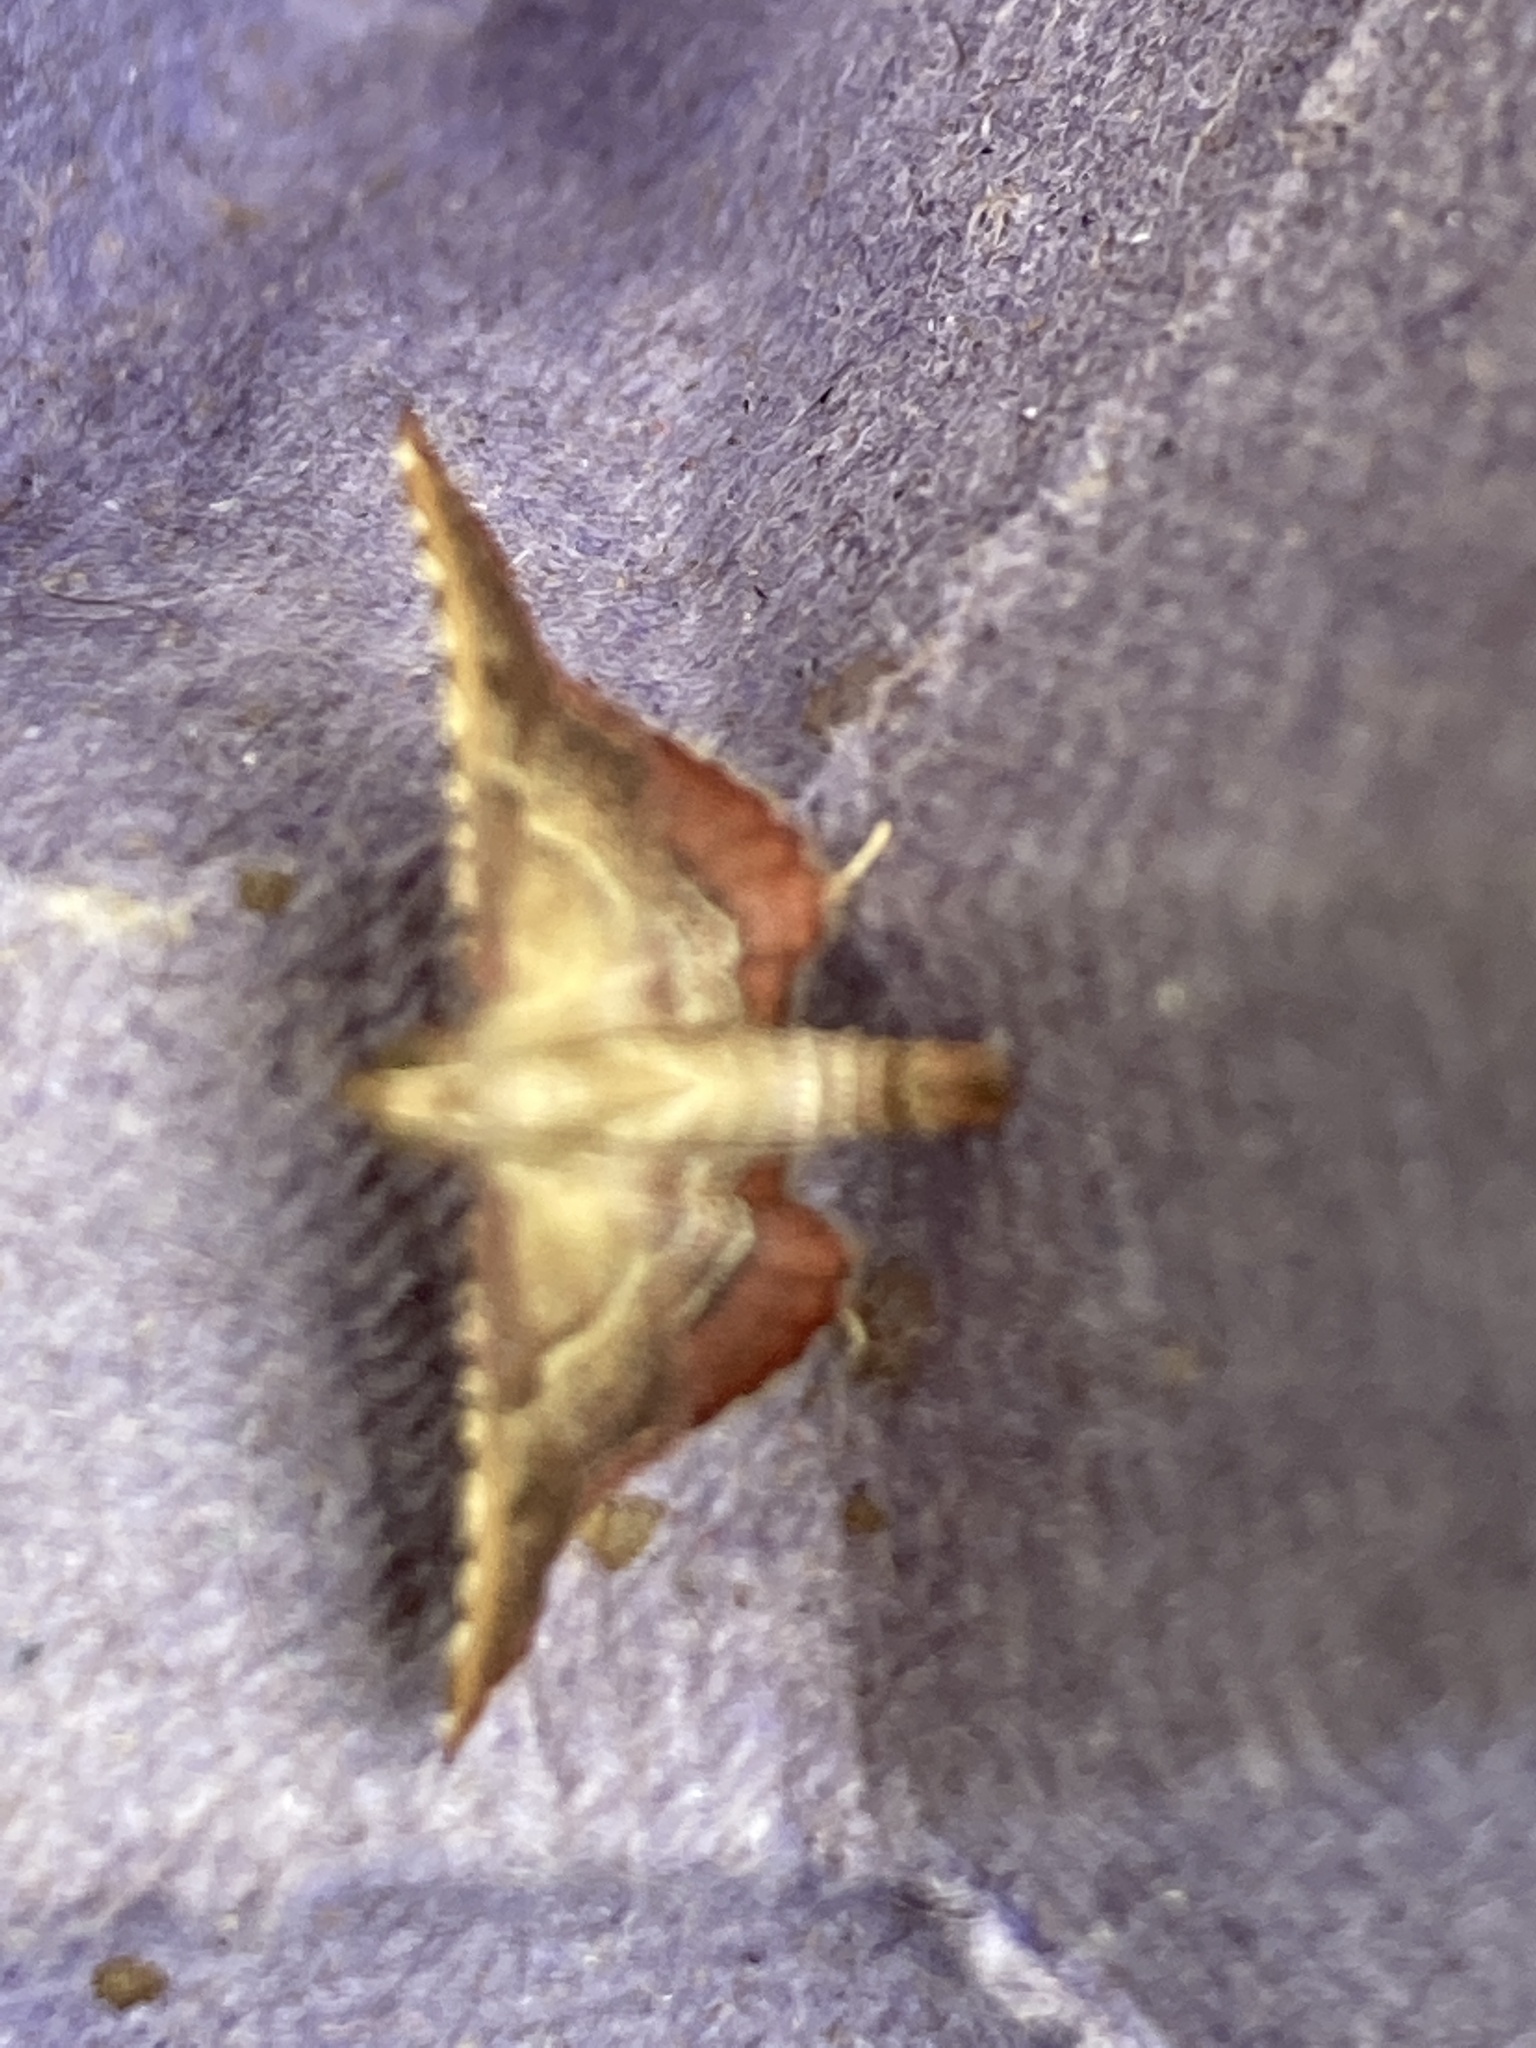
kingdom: Animalia
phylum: Arthropoda
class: Insecta
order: Lepidoptera
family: Pyralidae
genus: Endotricha
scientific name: Endotricha flammealis
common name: Rosy tabby
